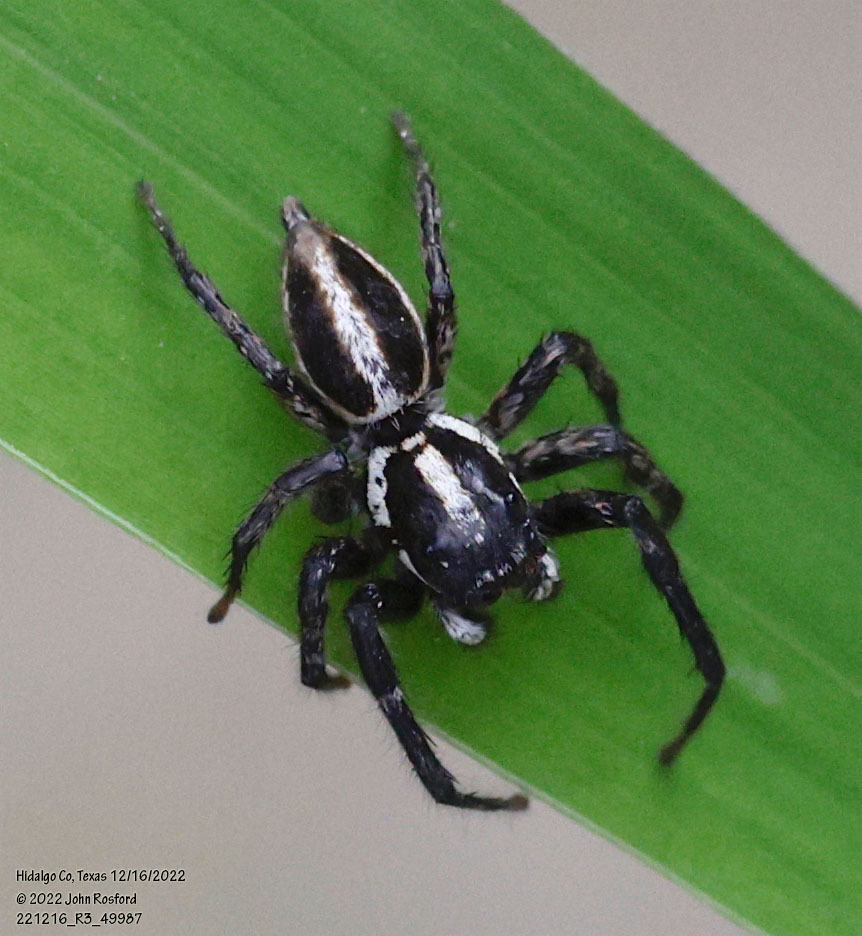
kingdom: Animalia
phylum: Arthropoda
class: Arachnida
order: Araneae
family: Salticidae
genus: Leptofreya
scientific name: Leptofreya ambigua
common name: Jumping spider
